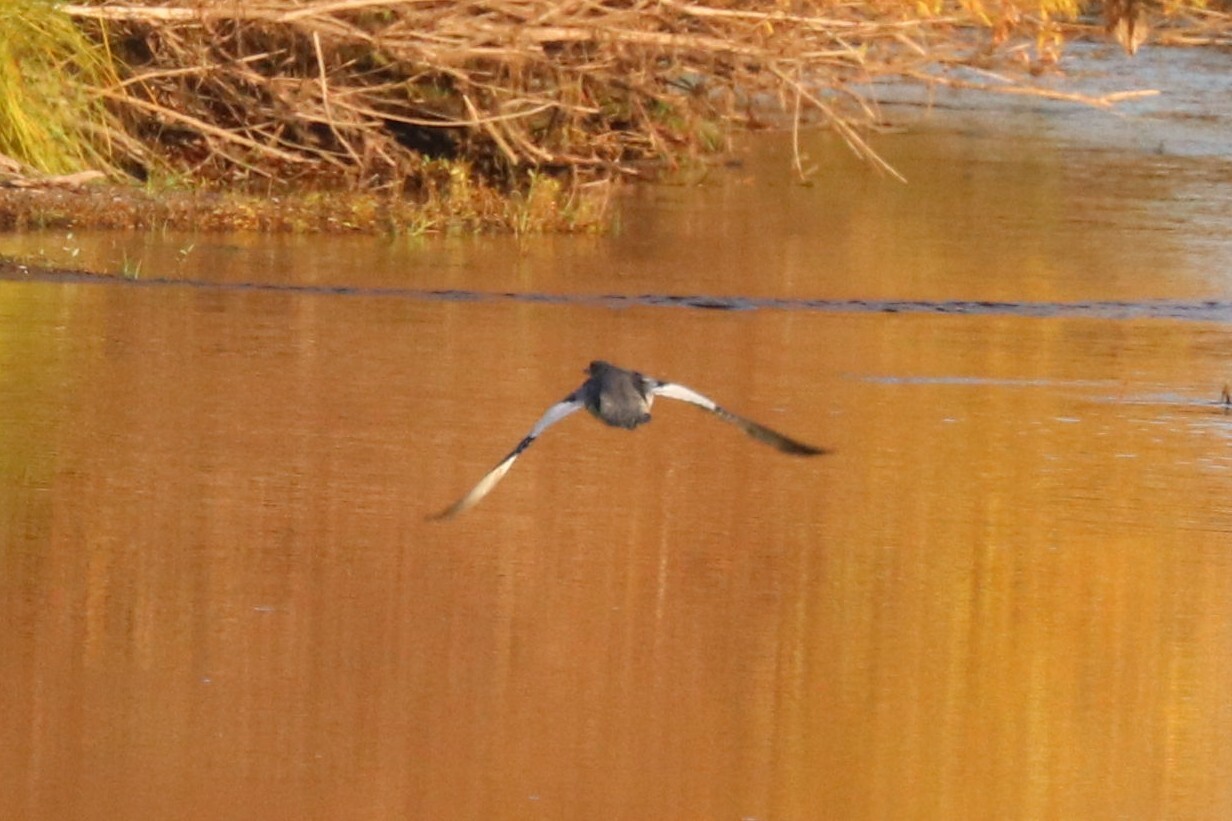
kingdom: Animalia
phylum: Chordata
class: Aves
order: Anseriformes
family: Anatidae
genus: Mergus
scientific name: Mergus merganser
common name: Common merganser
